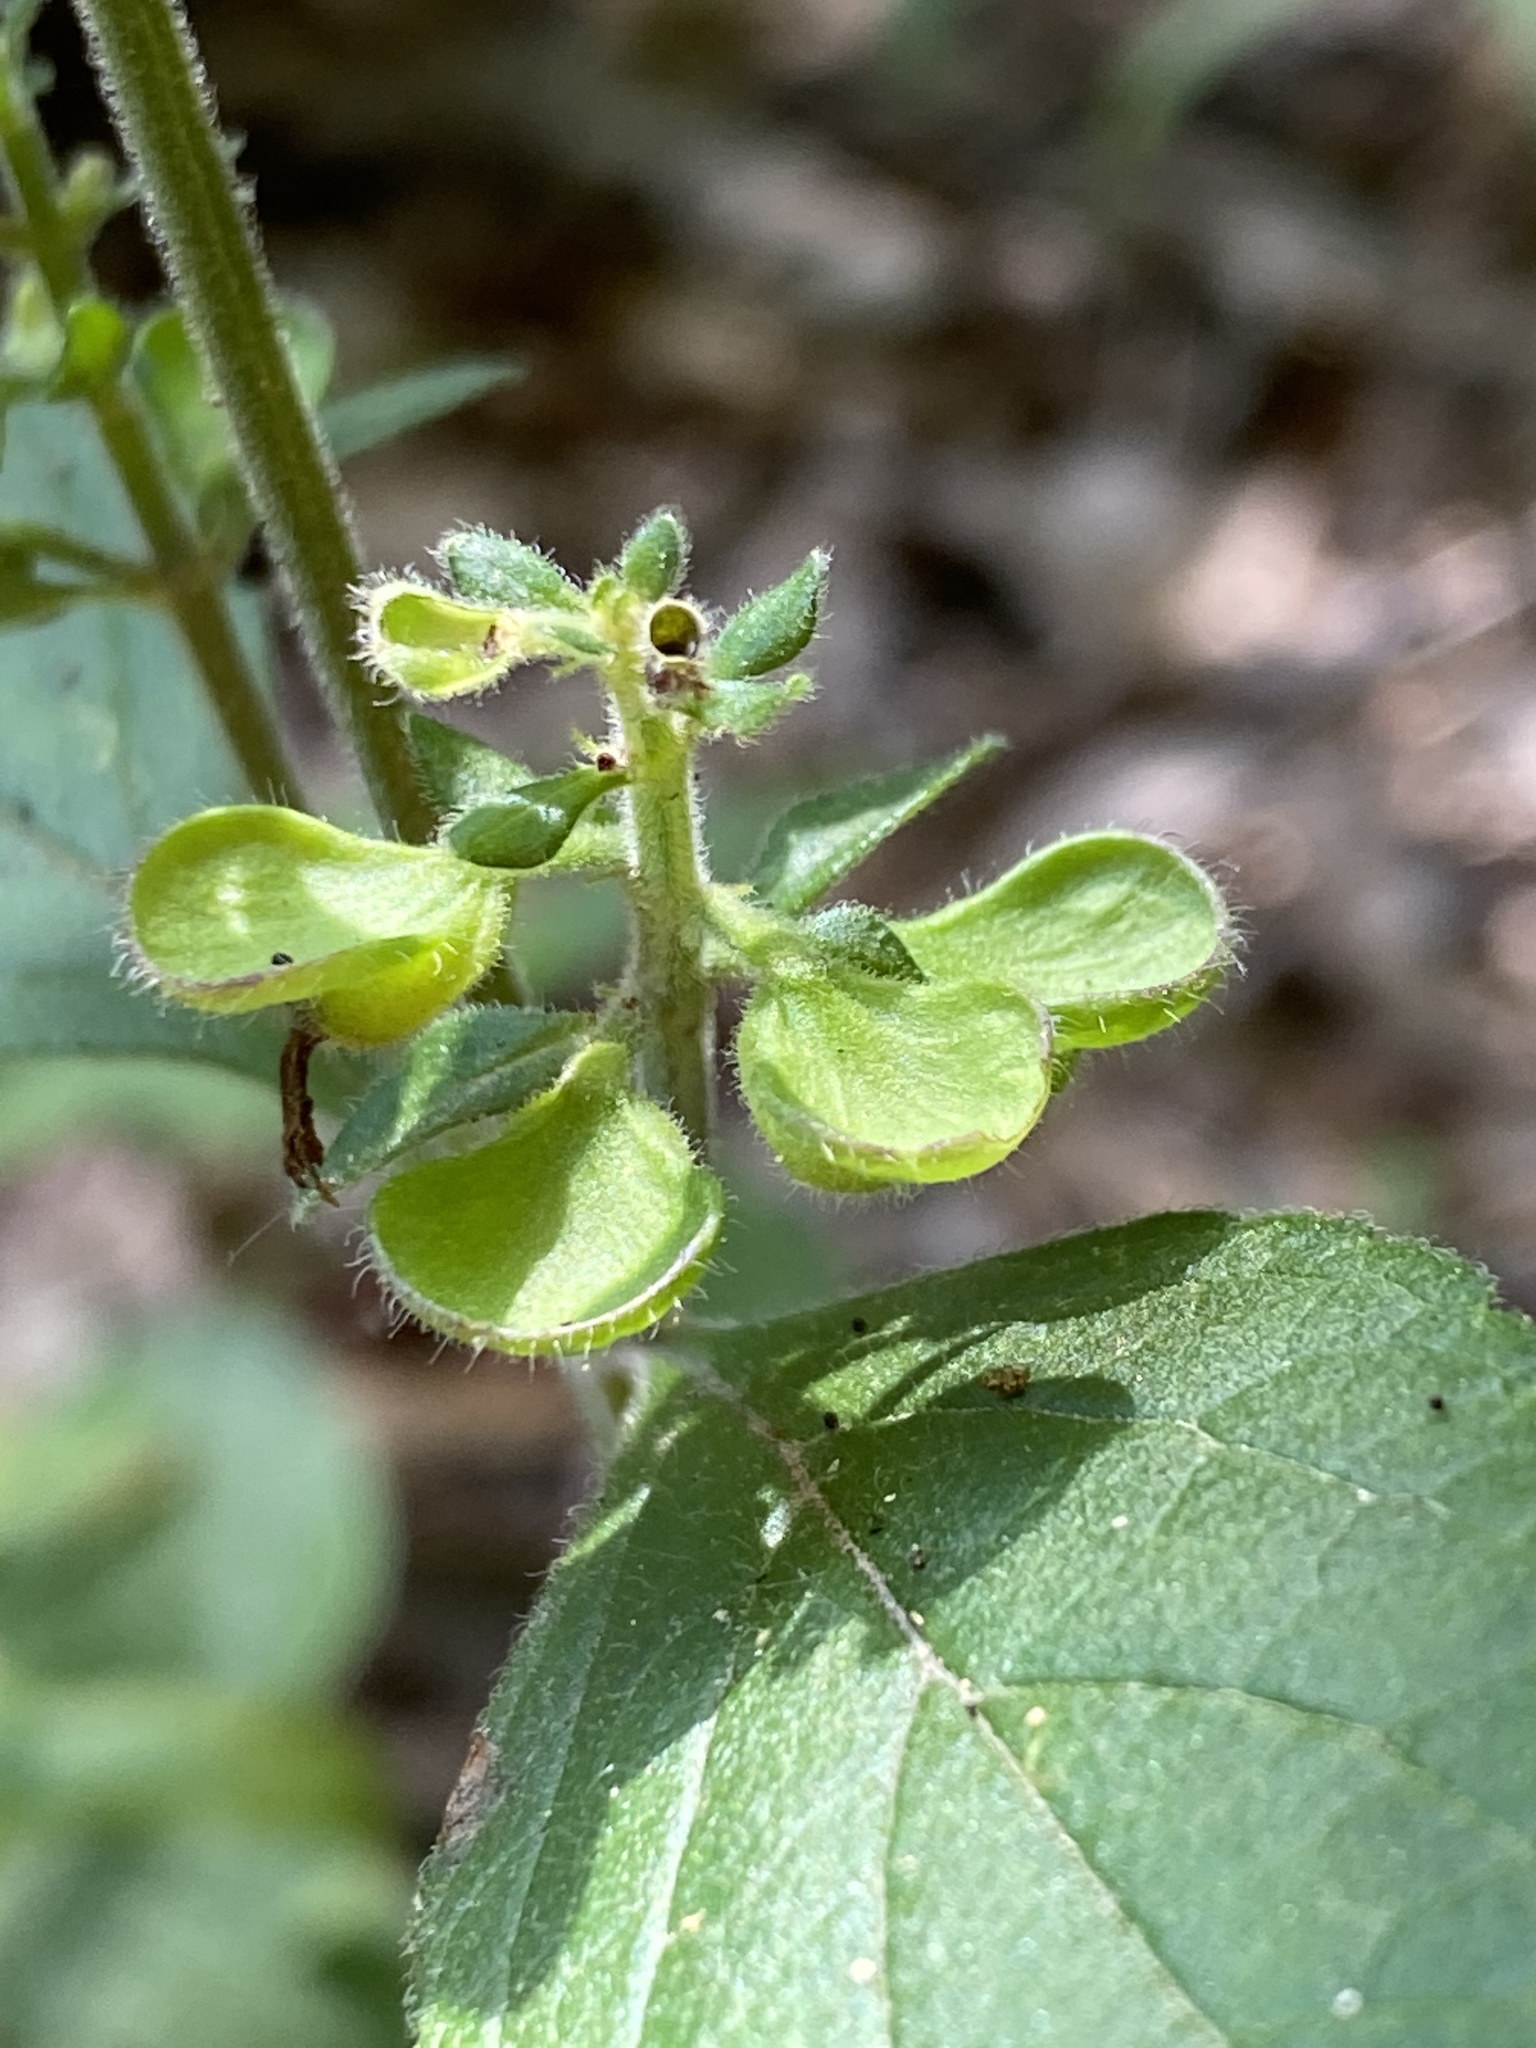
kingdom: Plantae
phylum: Tracheophyta
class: Magnoliopsida
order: Lamiales
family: Lamiaceae
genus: Scutellaria
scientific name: Scutellaria elliptica
